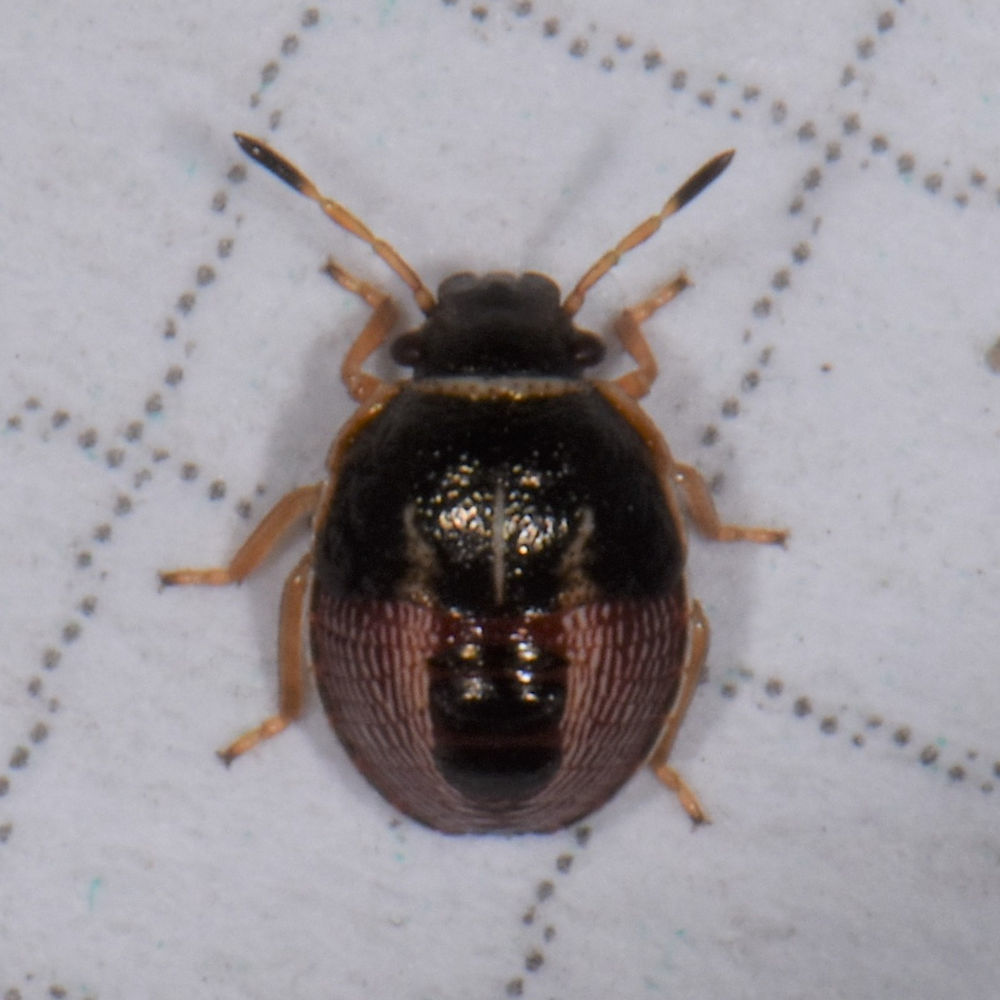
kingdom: Animalia
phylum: Arthropoda
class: Insecta
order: Hemiptera
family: Pentatomidae
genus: Mormidea
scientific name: Mormidea lugens
